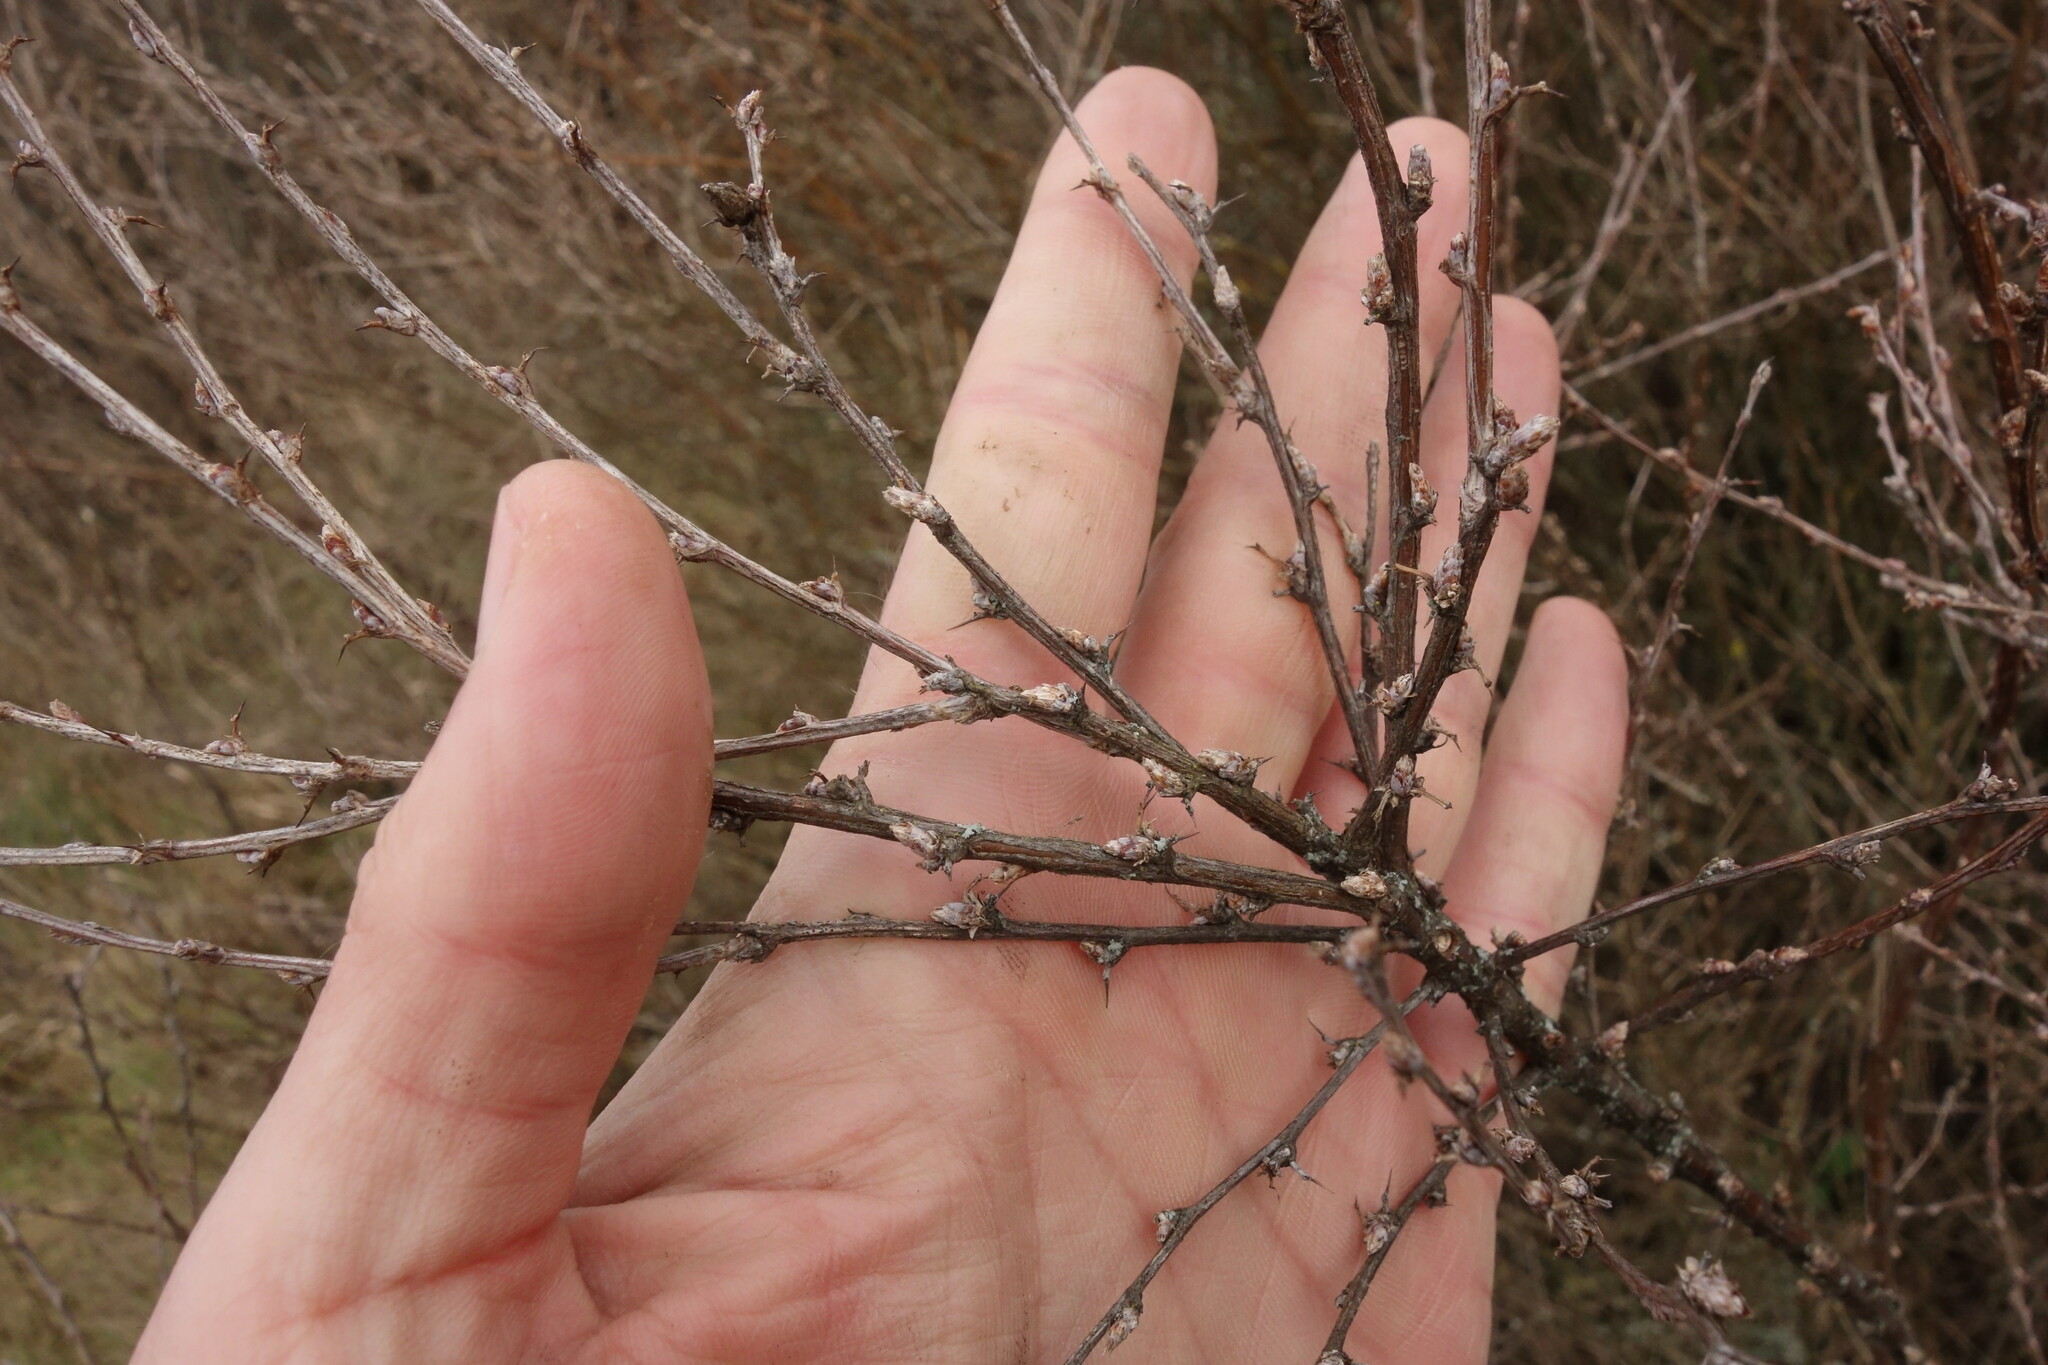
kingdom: Plantae
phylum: Tracheophyta
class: Magnoliopsida
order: Fabales
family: Fabaceae
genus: Caragana
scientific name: Caragana frutex
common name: Russian peashrub
